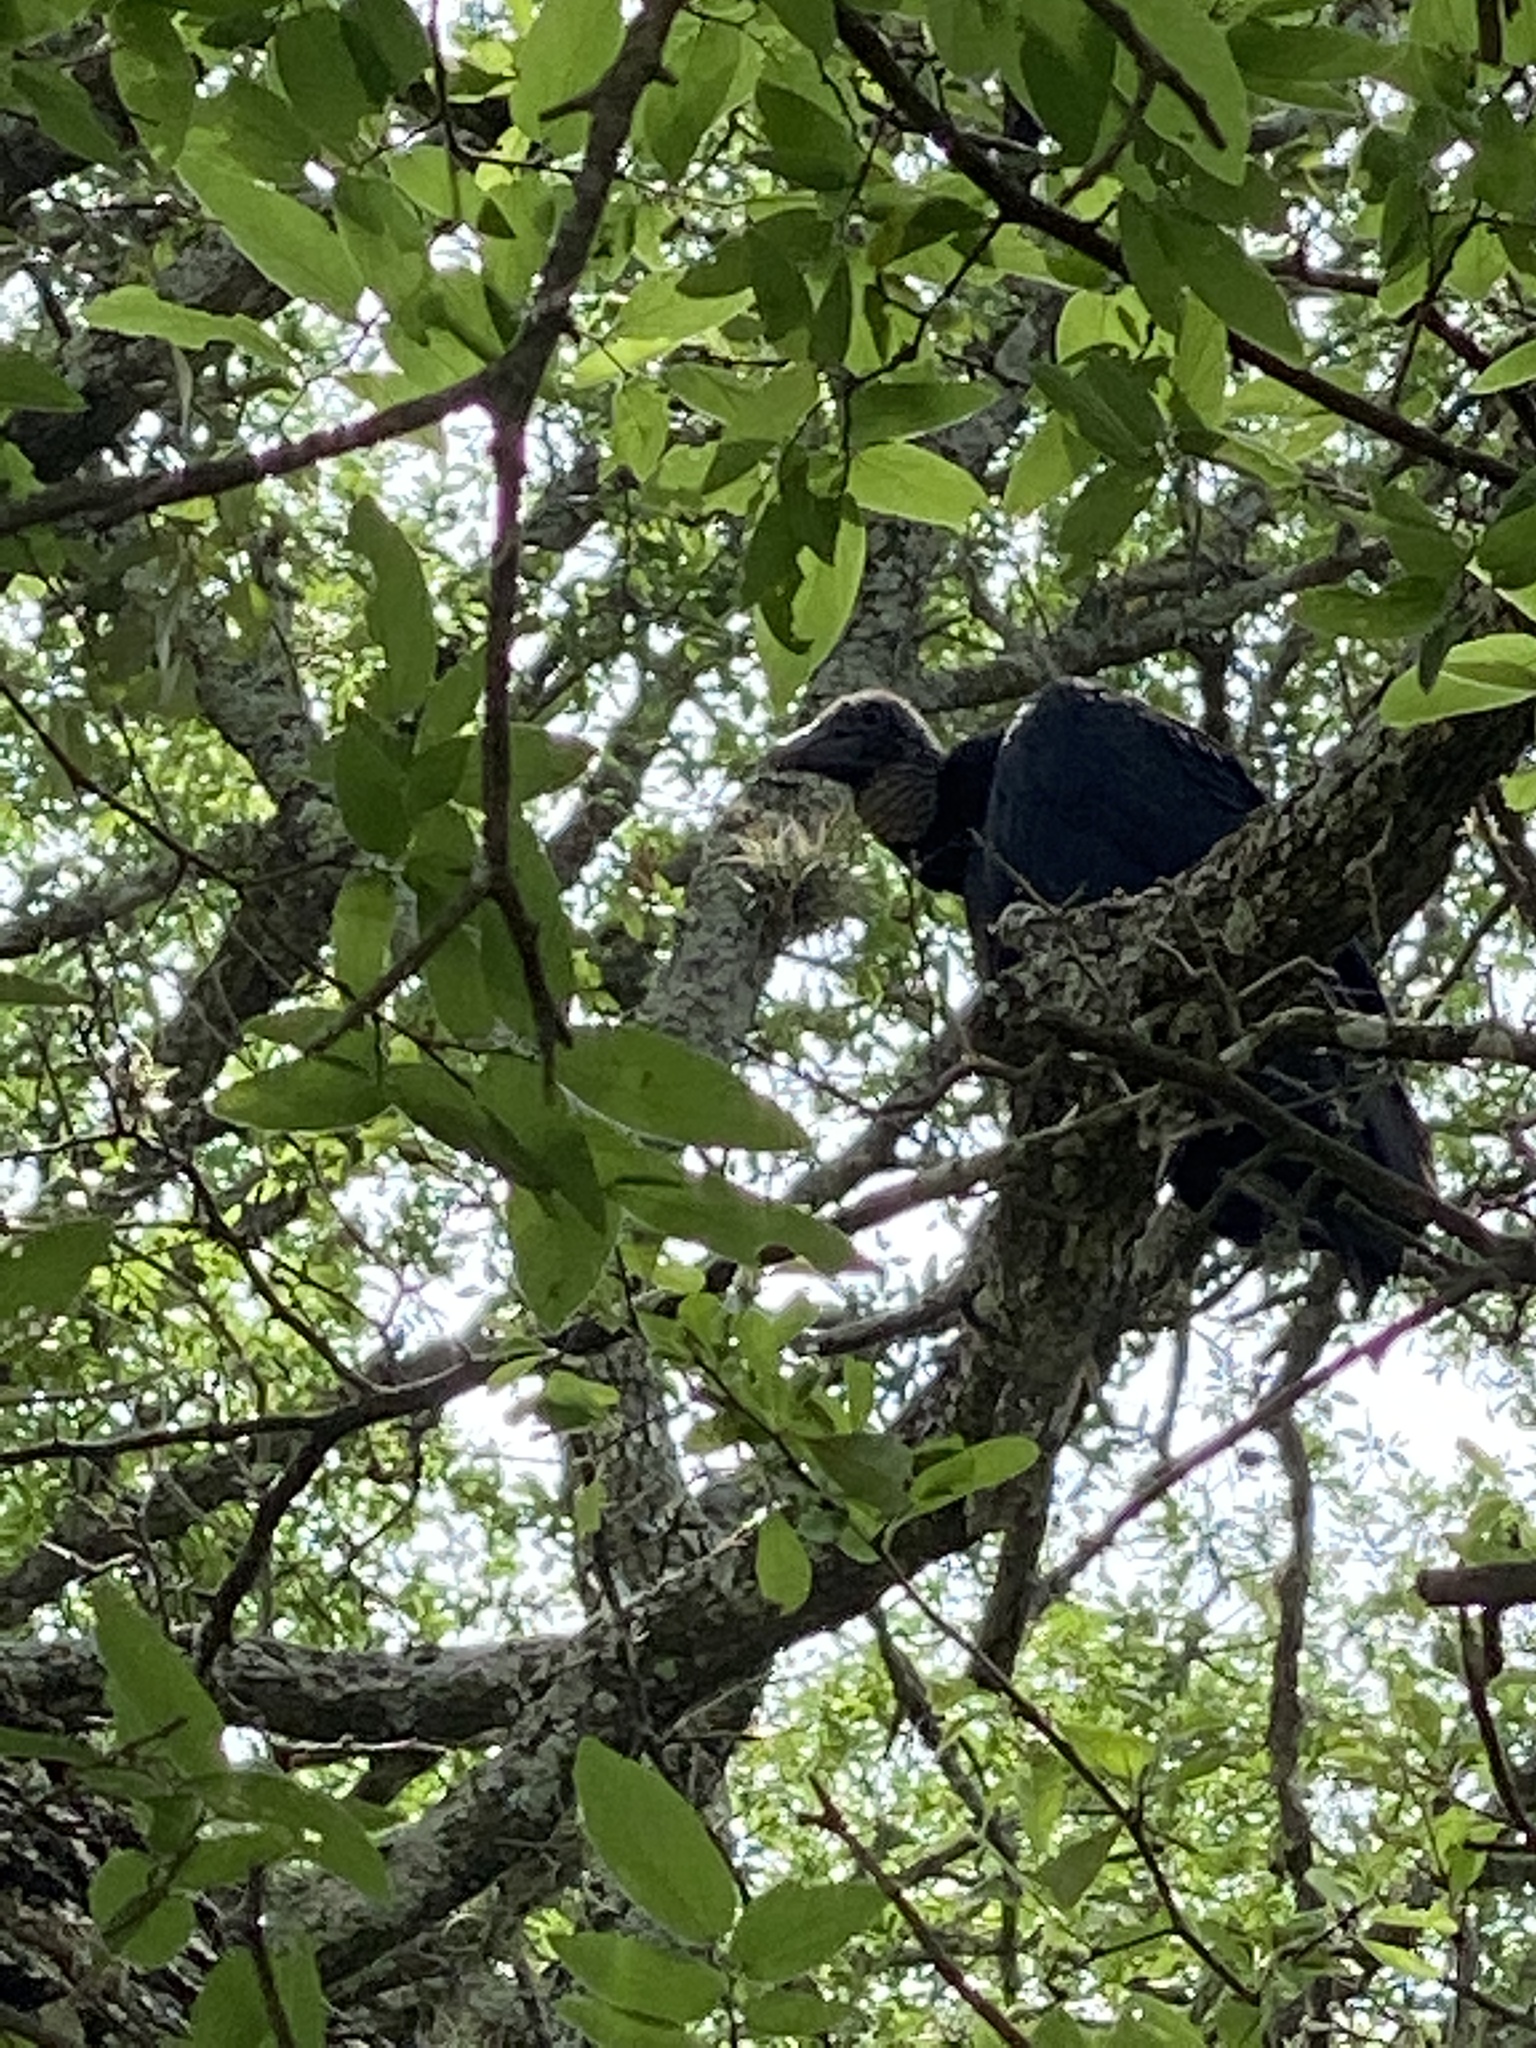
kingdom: Animalia
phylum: Chordata
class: Aves
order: Accipitriformes
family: Cathartidae
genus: Coragyps
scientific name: Coragyps atratus
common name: Black vulture
